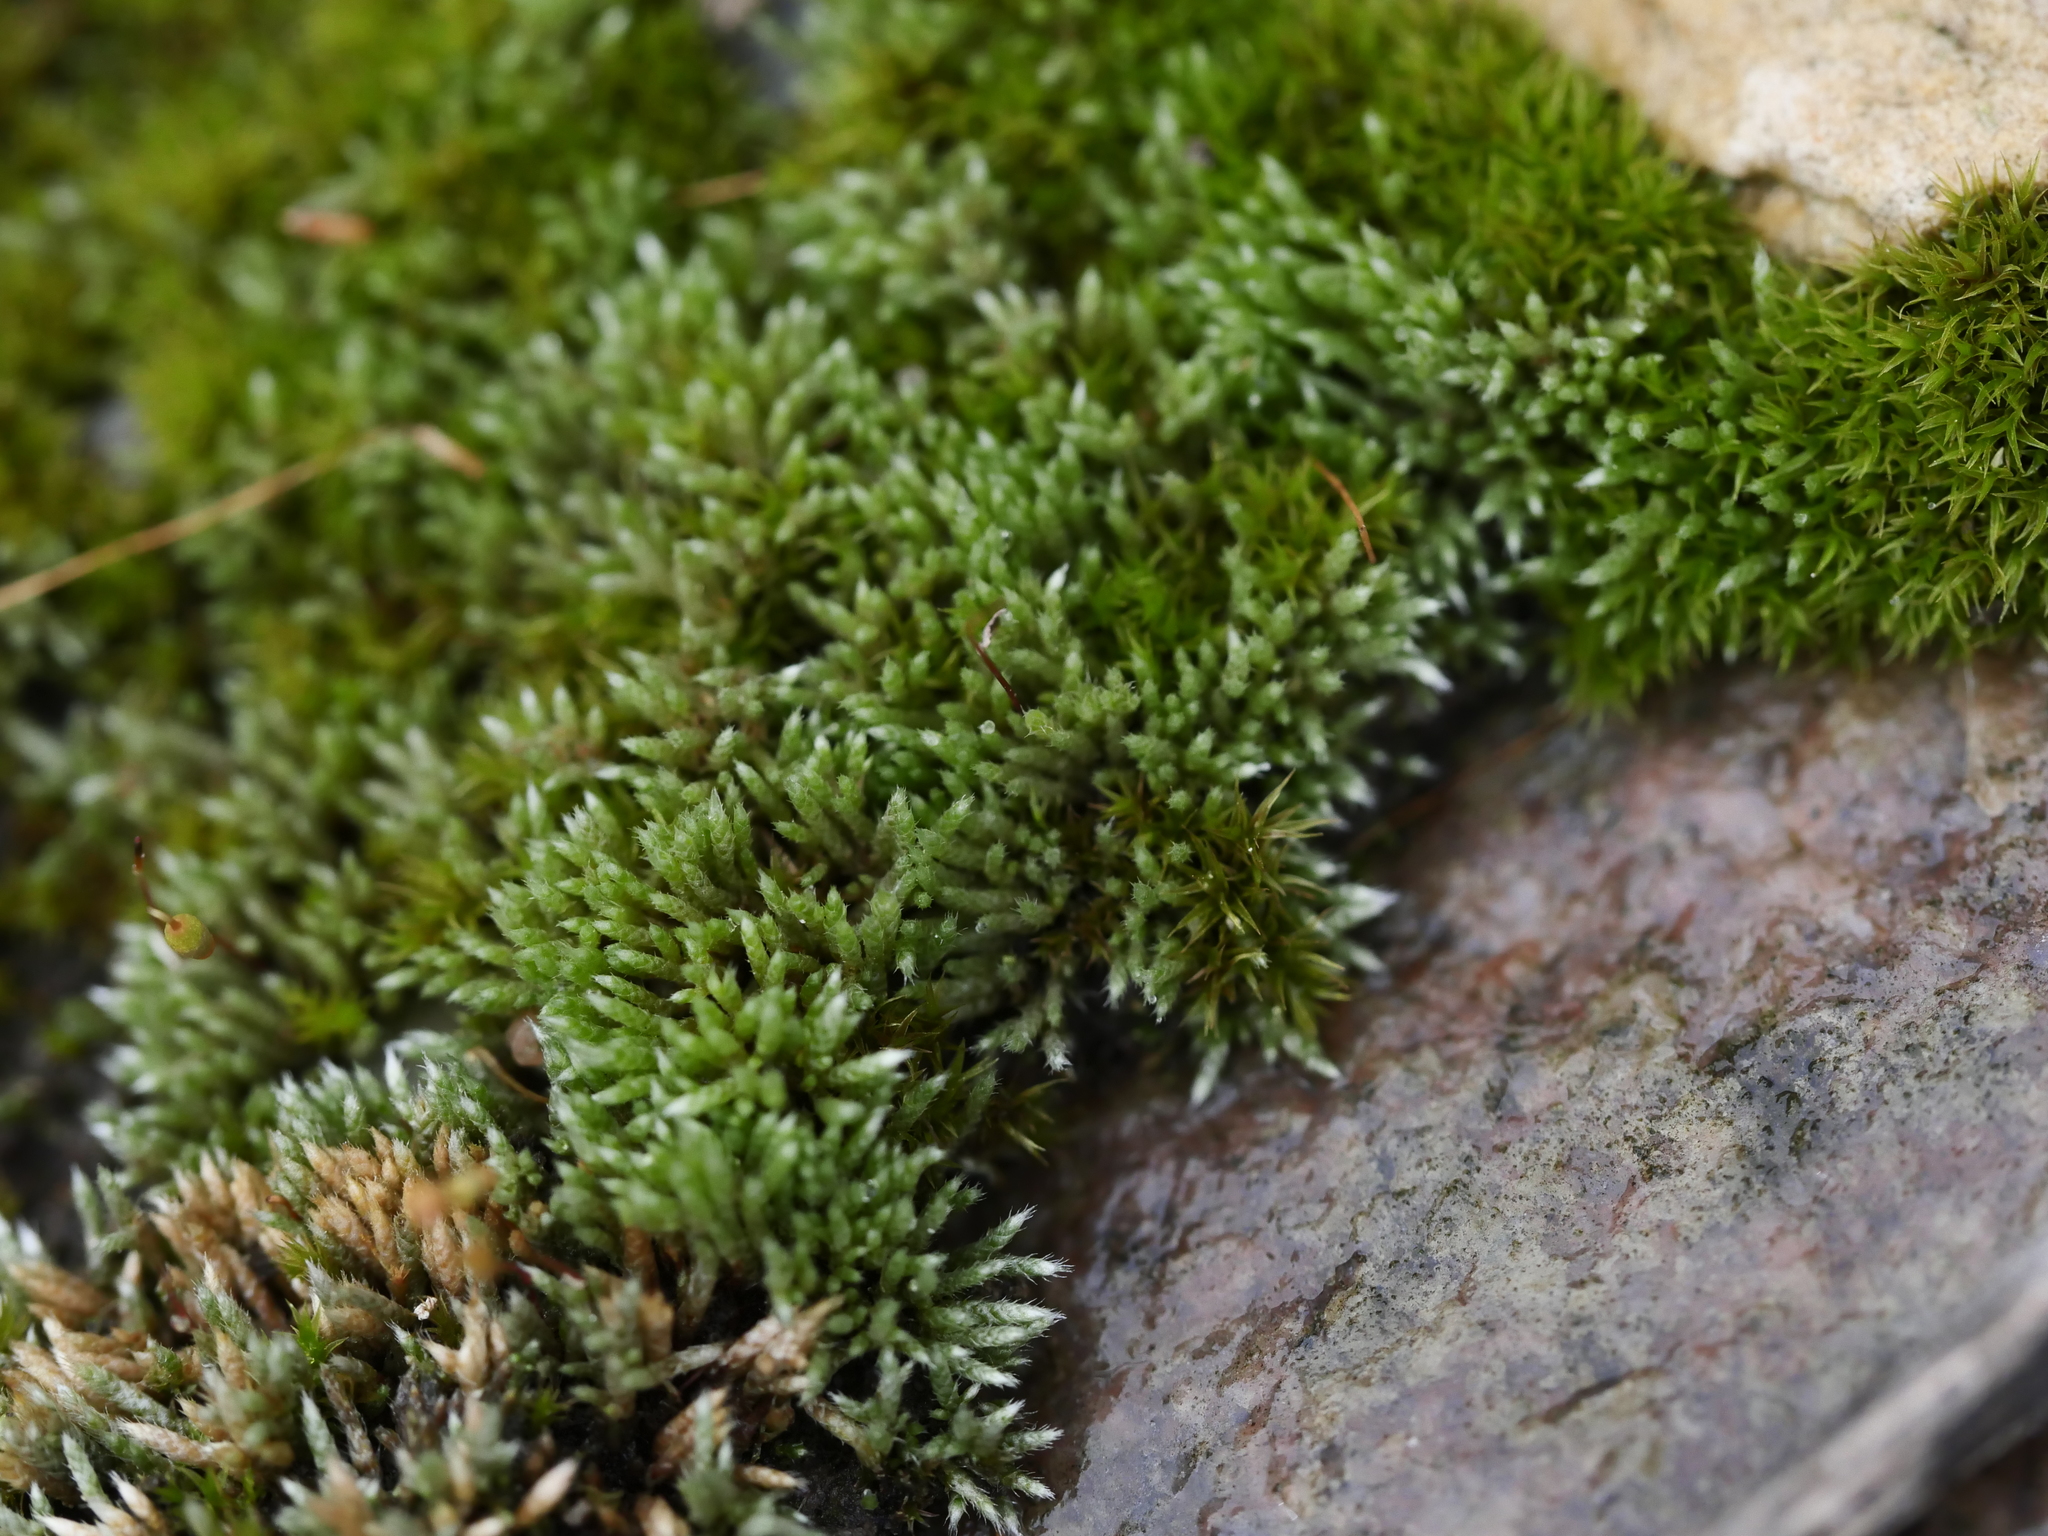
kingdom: Plantae
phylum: Bryophyta
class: Bryopsida
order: Bryales
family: Bryaceae
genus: Bryum
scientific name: Bryum argenteum
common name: Silver-moss
